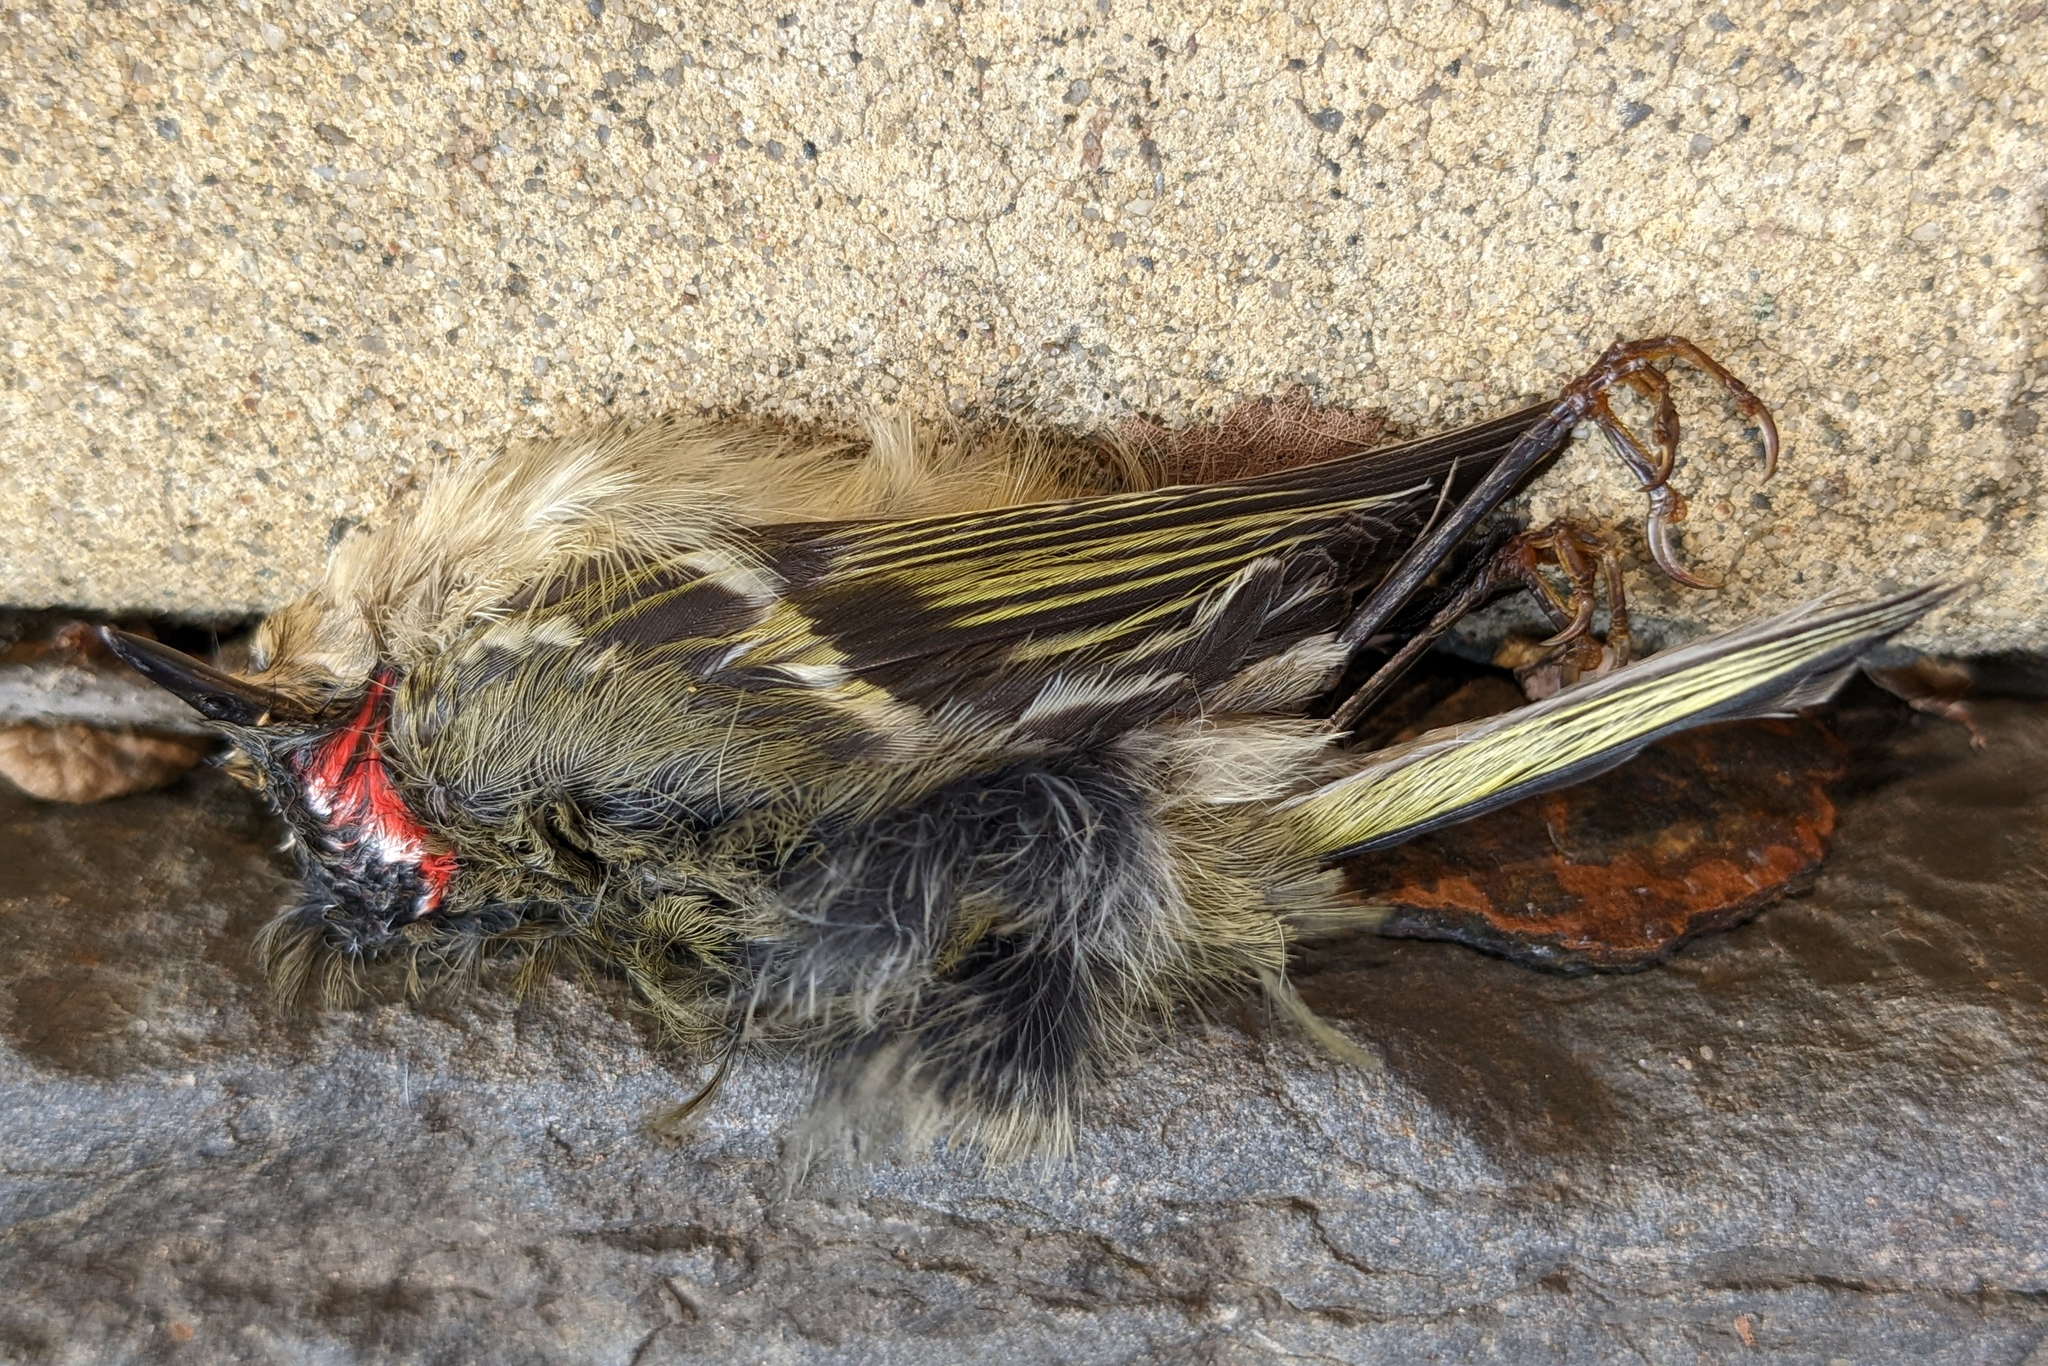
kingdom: Animalia
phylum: Chordata
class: Aves
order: Passeriformes
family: Regulidae
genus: Regulus
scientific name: Regulus calendula
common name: Ruby-crowned kinglet
